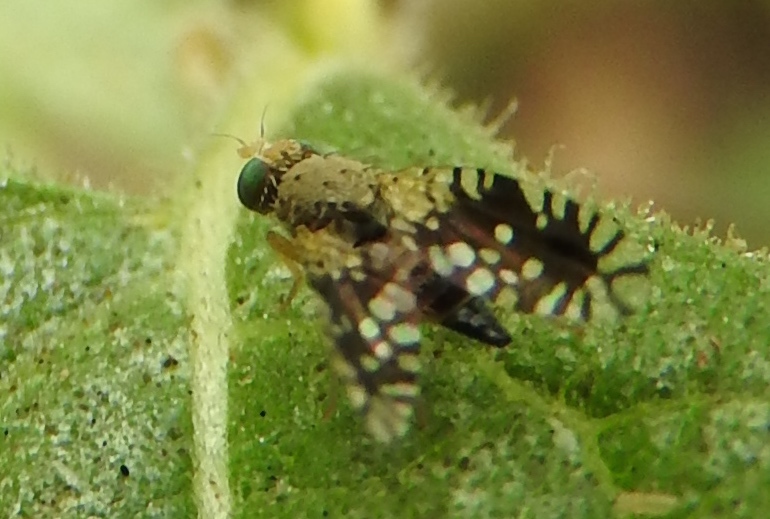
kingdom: Animalia
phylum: Arthropoda
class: Insecta
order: Diptera
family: Tephritidae
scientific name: Tephritidae
